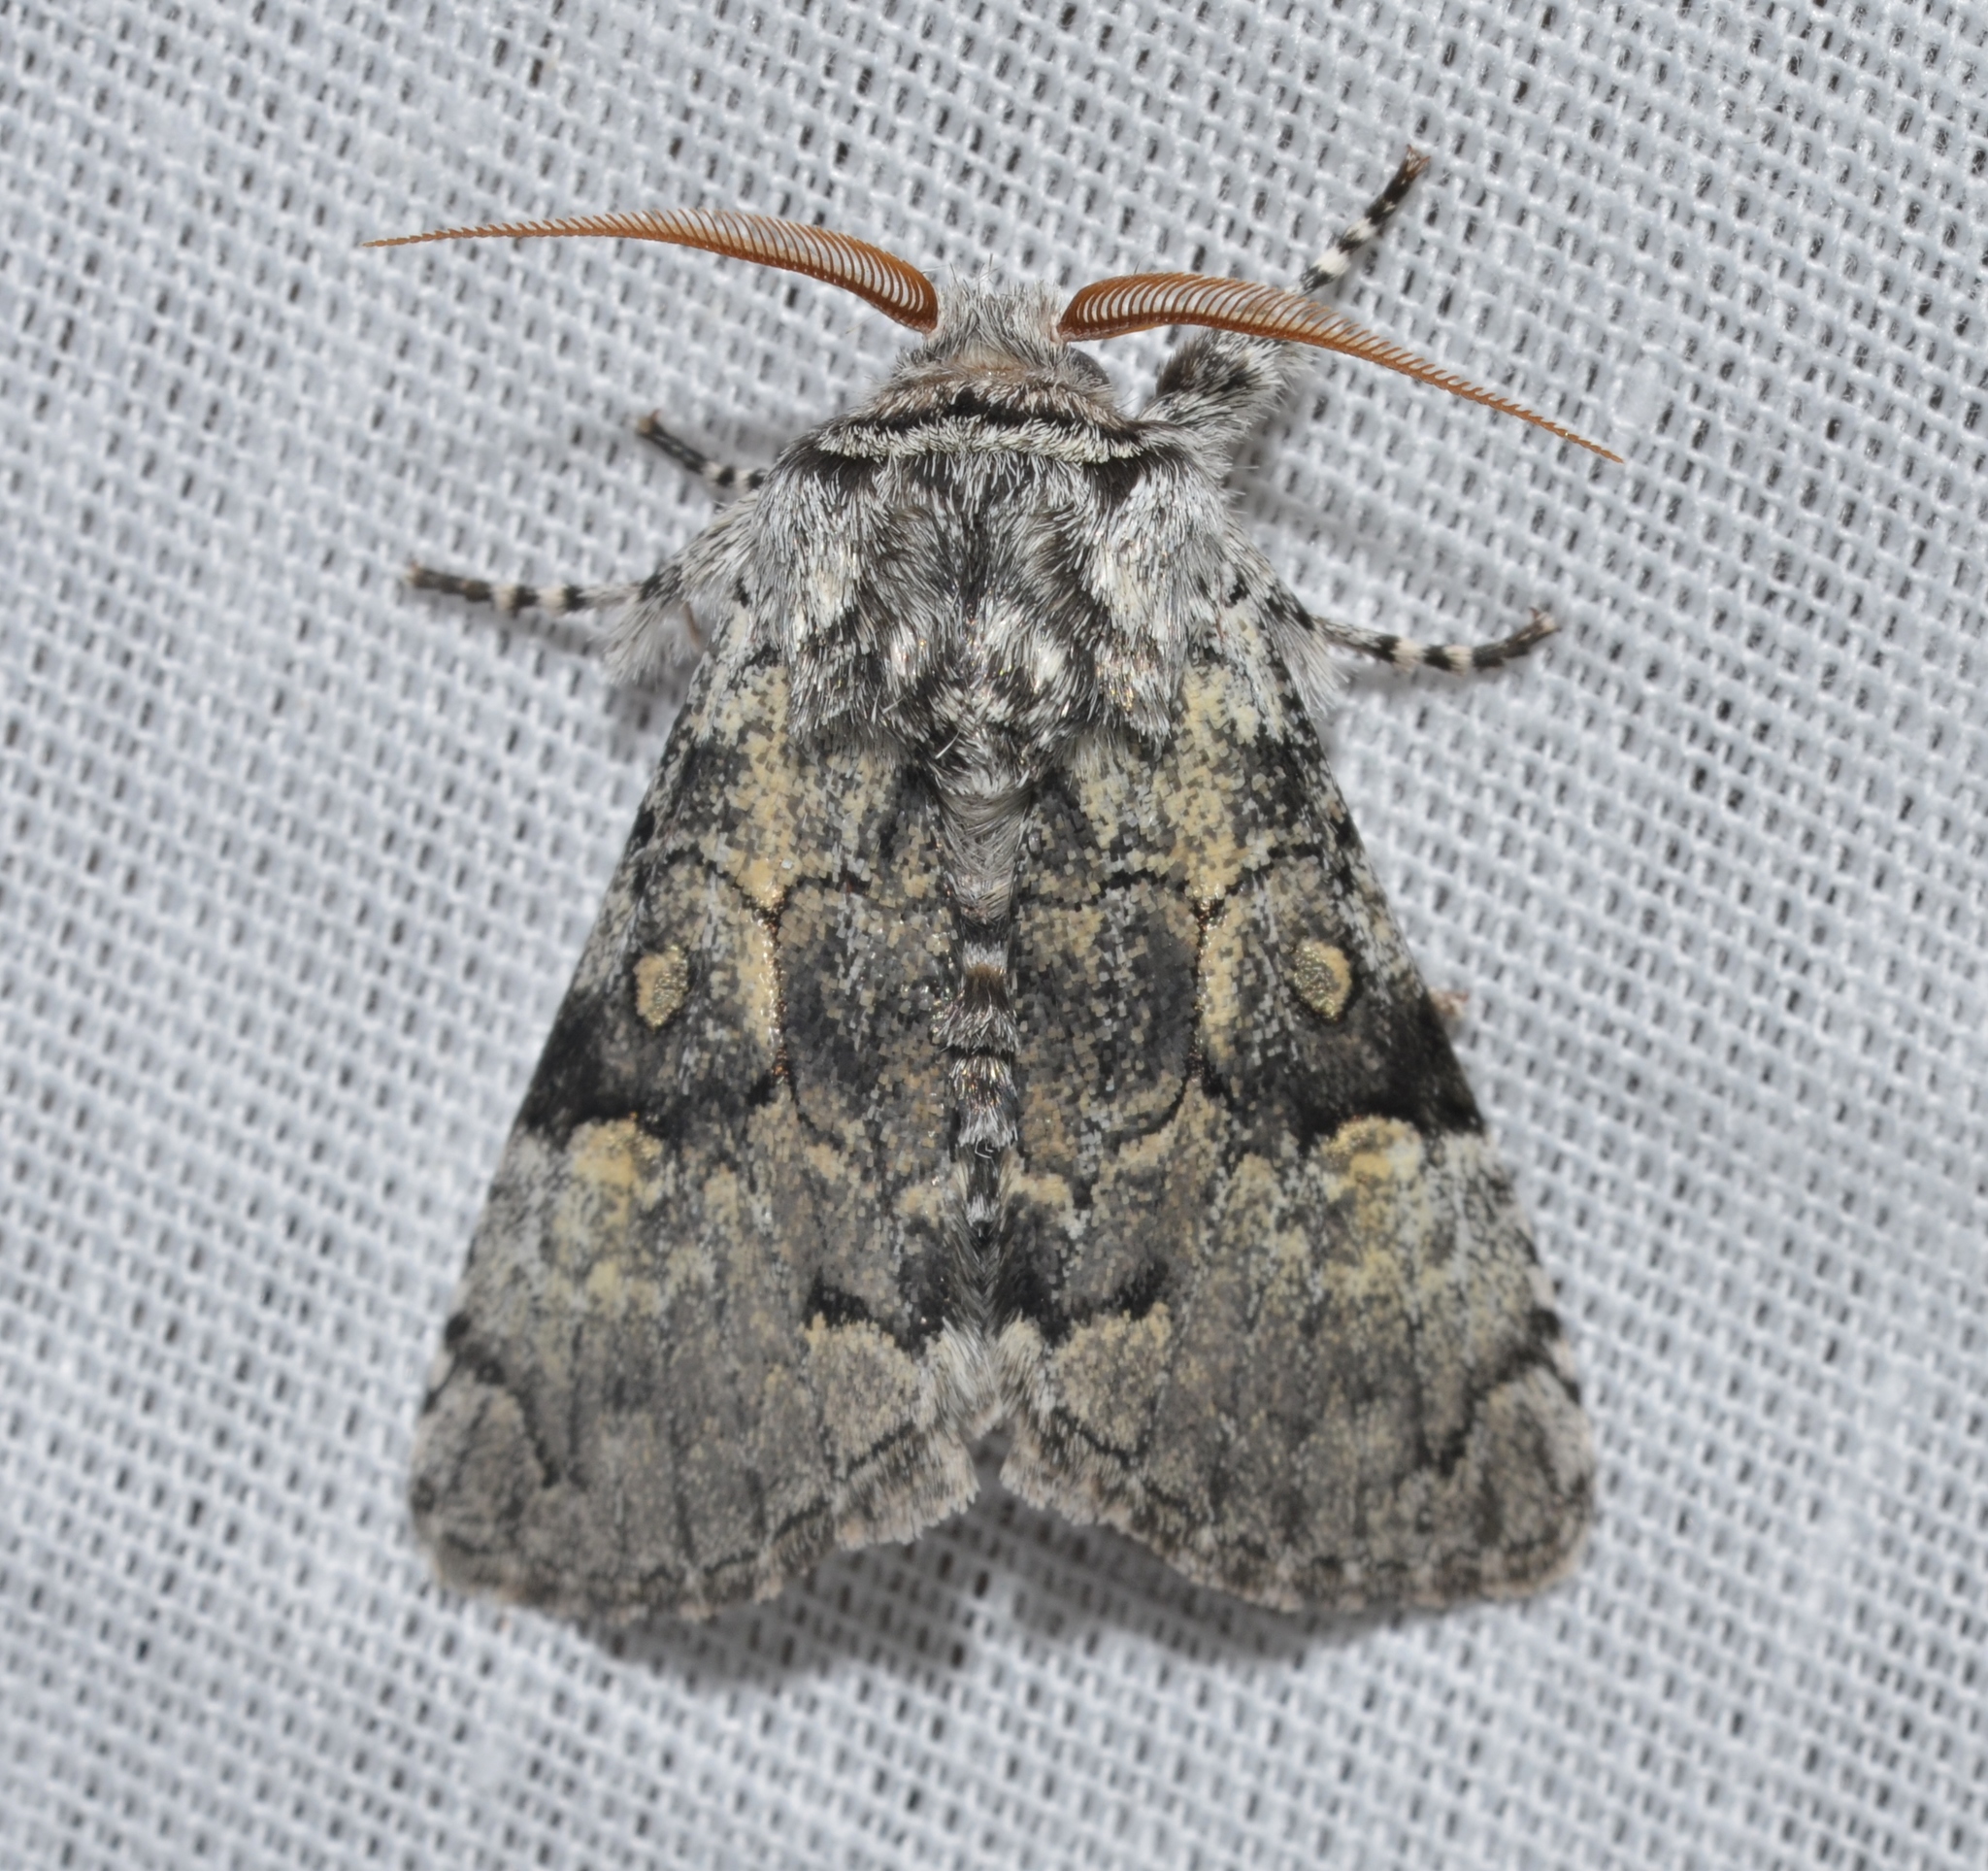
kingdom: Animalia
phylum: Arthropoda
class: Insecta
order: Lepidoptera
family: Noctuidae
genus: Charadra
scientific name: Charadra deridens
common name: Marbled tuffet
